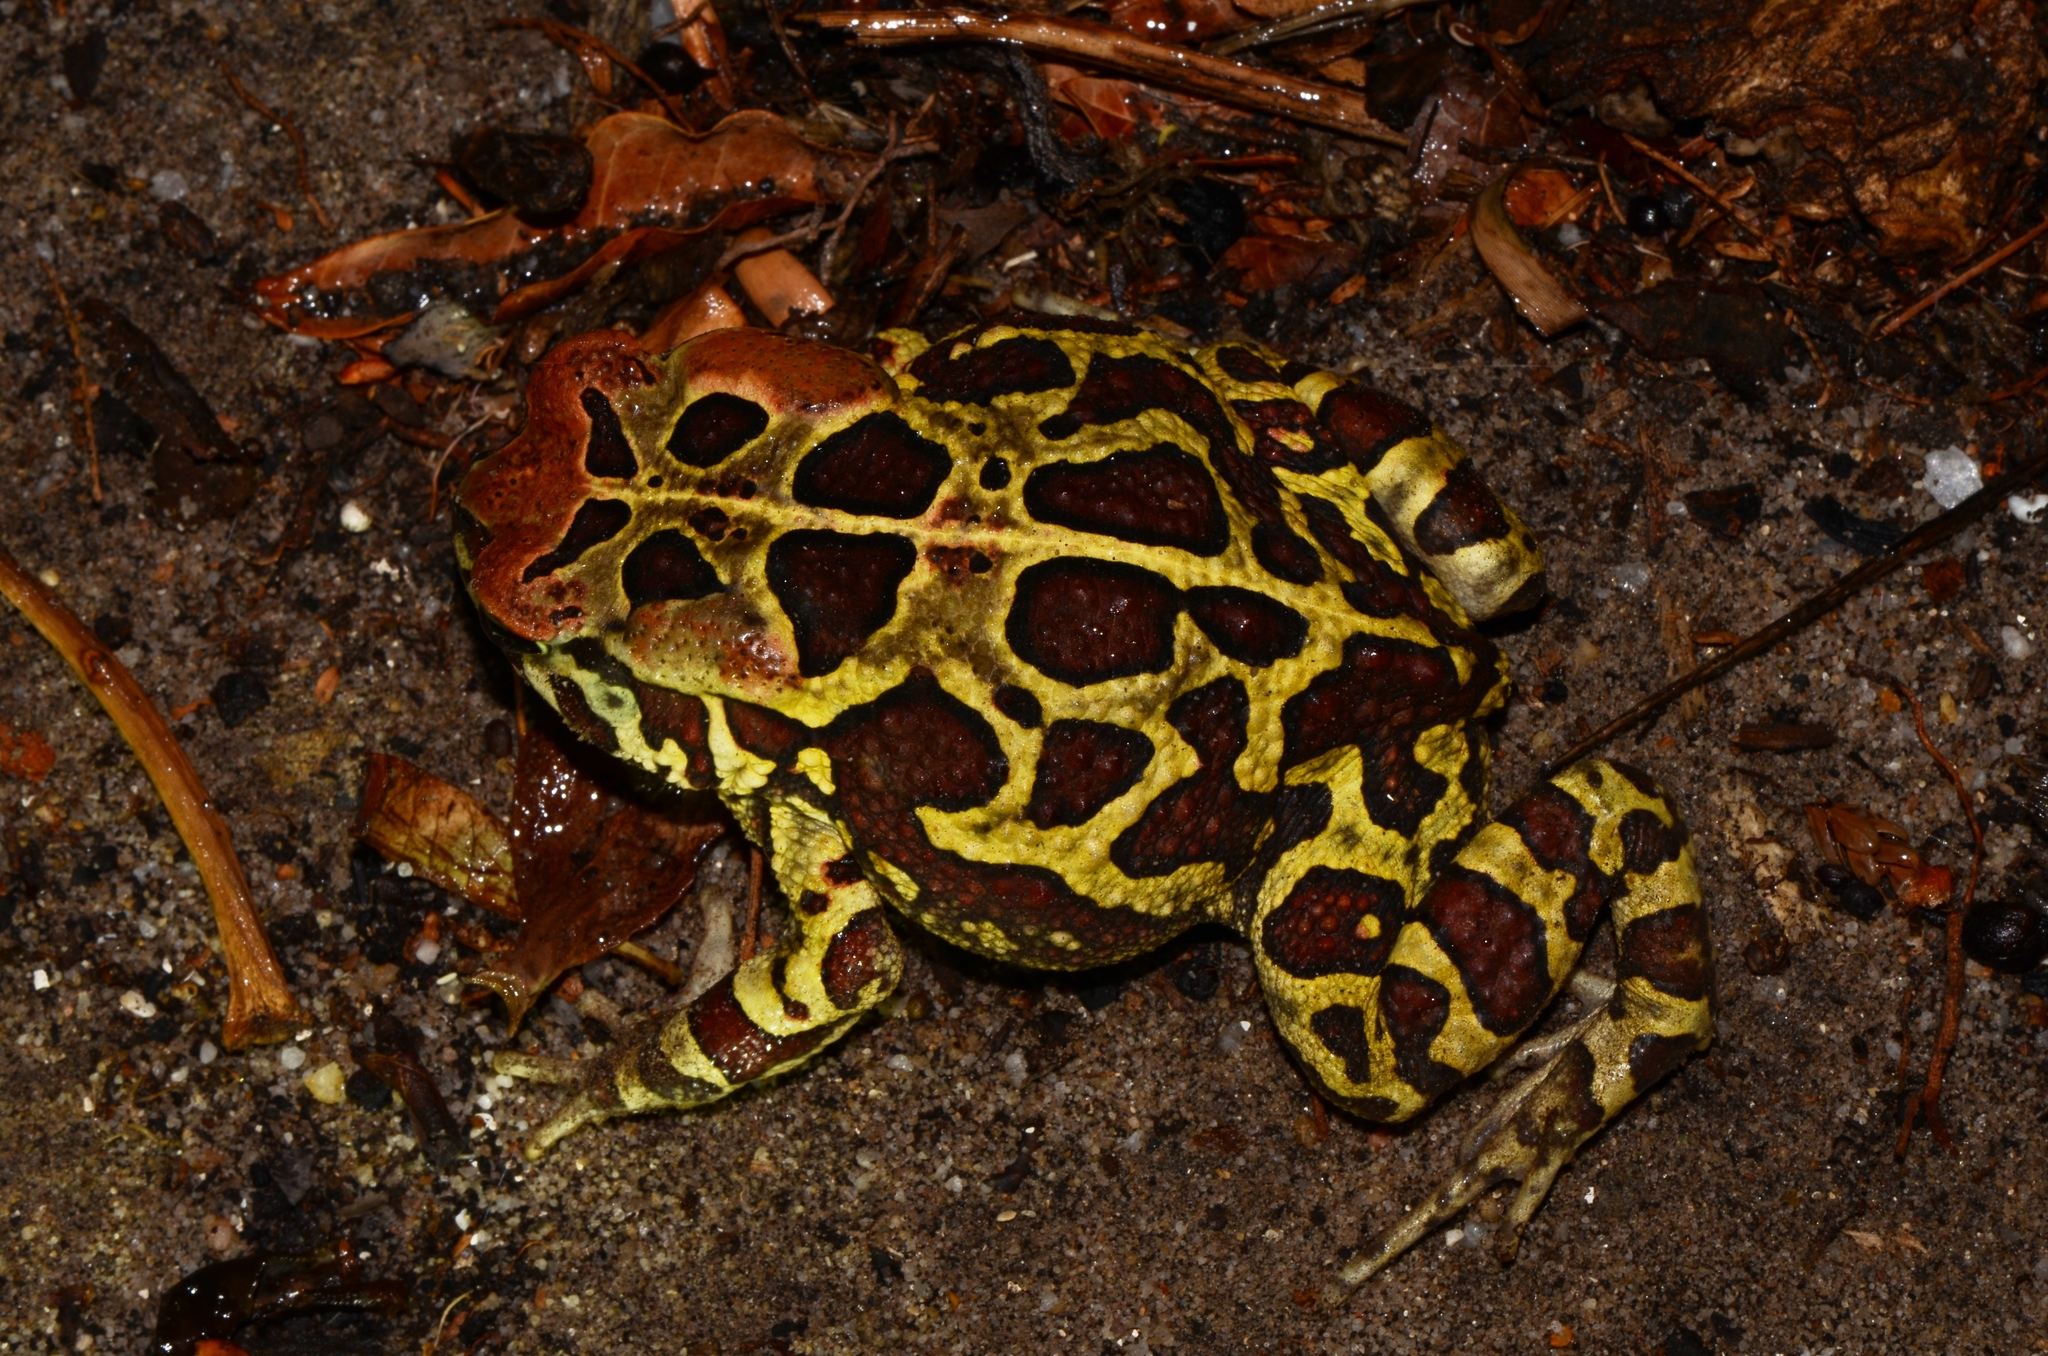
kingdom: Animalia
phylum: Chordata
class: Amphibia
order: Anura
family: Bufonidae
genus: Sclerophrys
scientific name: Sclerophrys pantherina
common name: Panther toad
